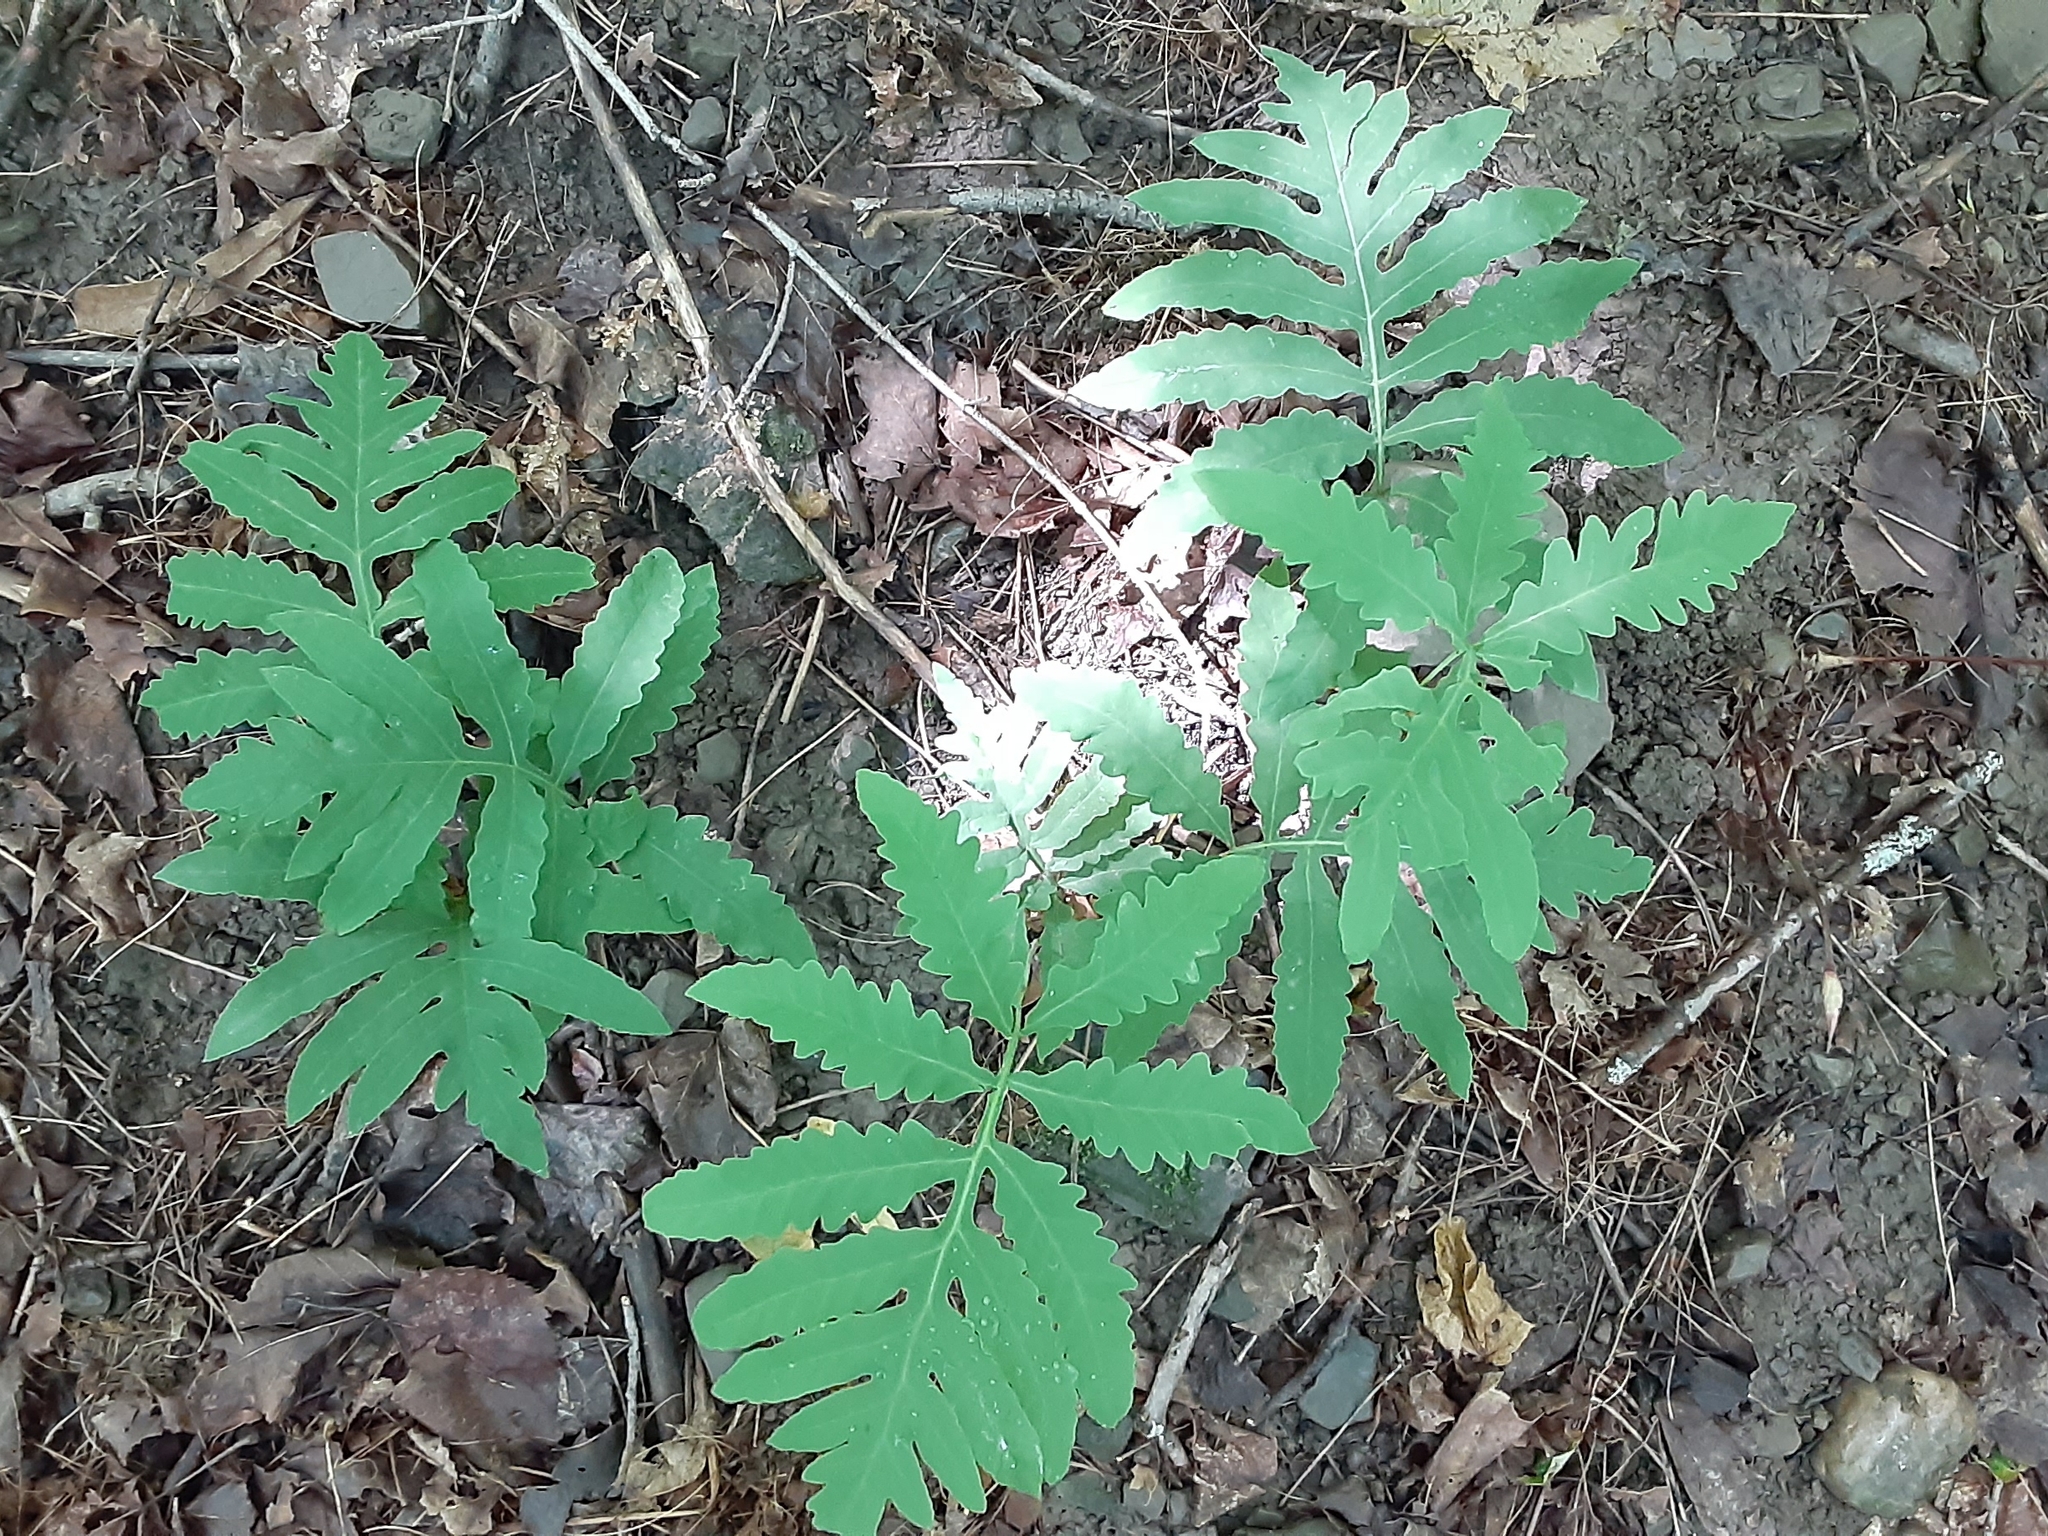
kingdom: Plantae
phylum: Tracheophyta
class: Polypodiopsida
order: Polypodiales
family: Onocleaceae
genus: Onoclea
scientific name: Onoclea sensibilis
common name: Sensitive fern
